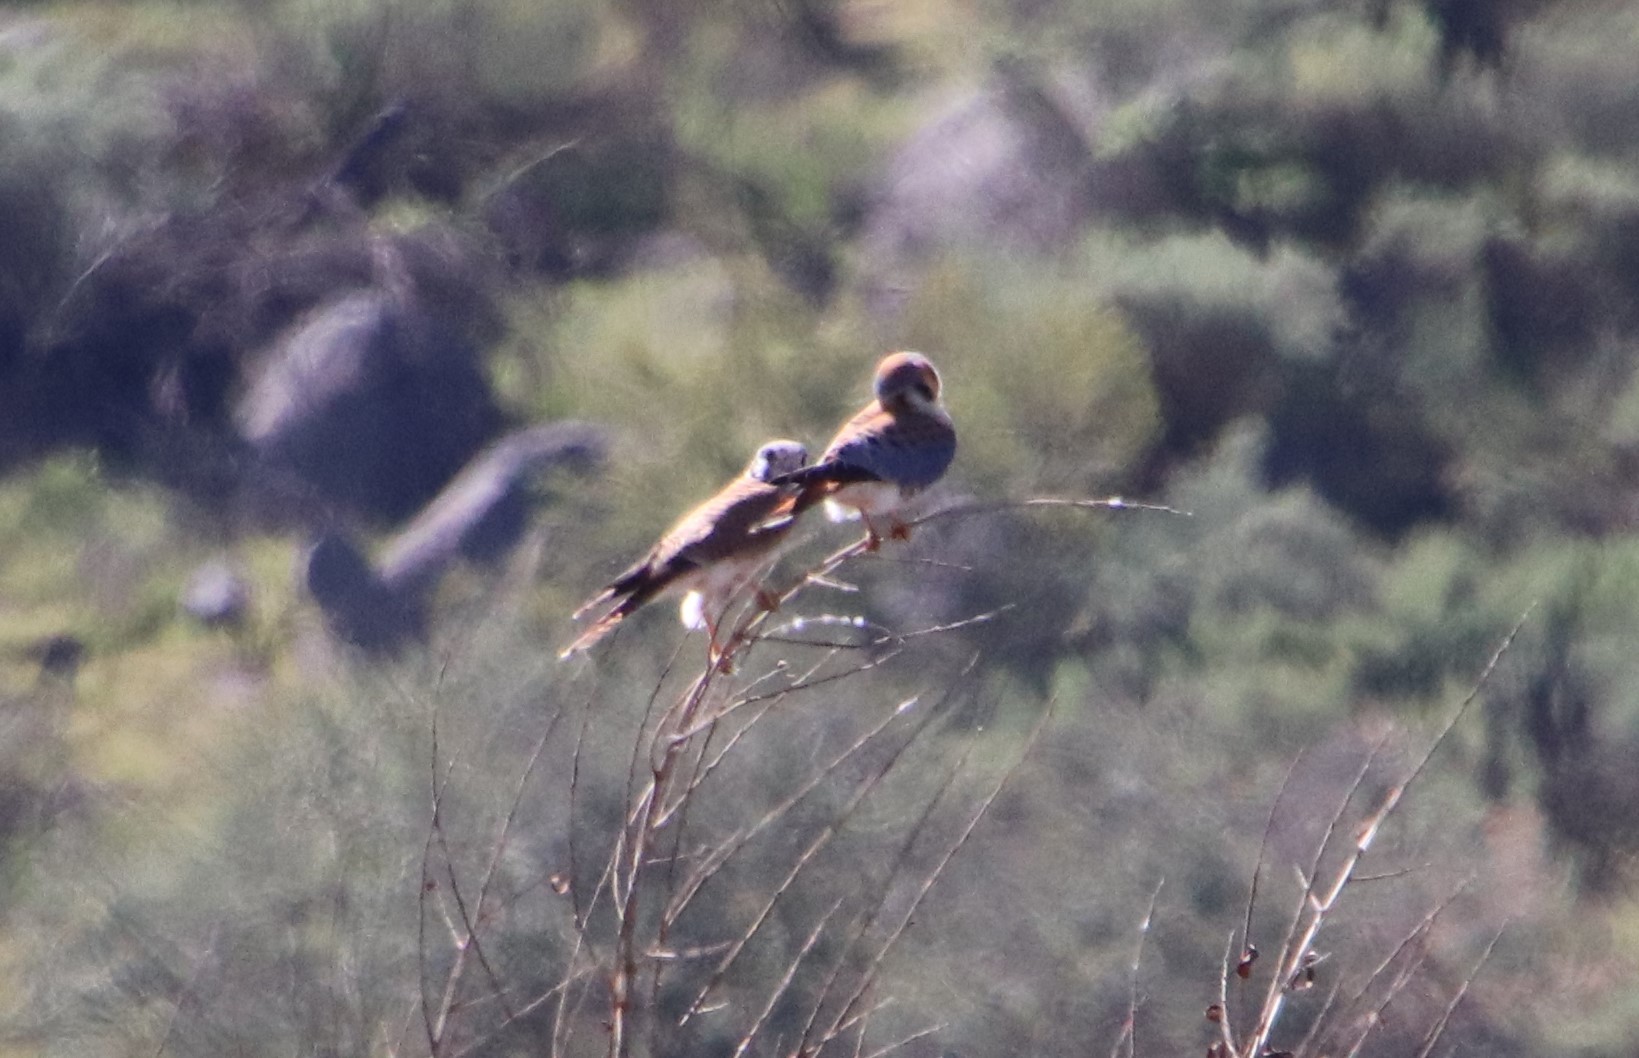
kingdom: Animalia
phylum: Chordata
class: Aves
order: Falconiformes
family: Falconidae
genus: Falco
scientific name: Falco sparverius
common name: American kestrel
